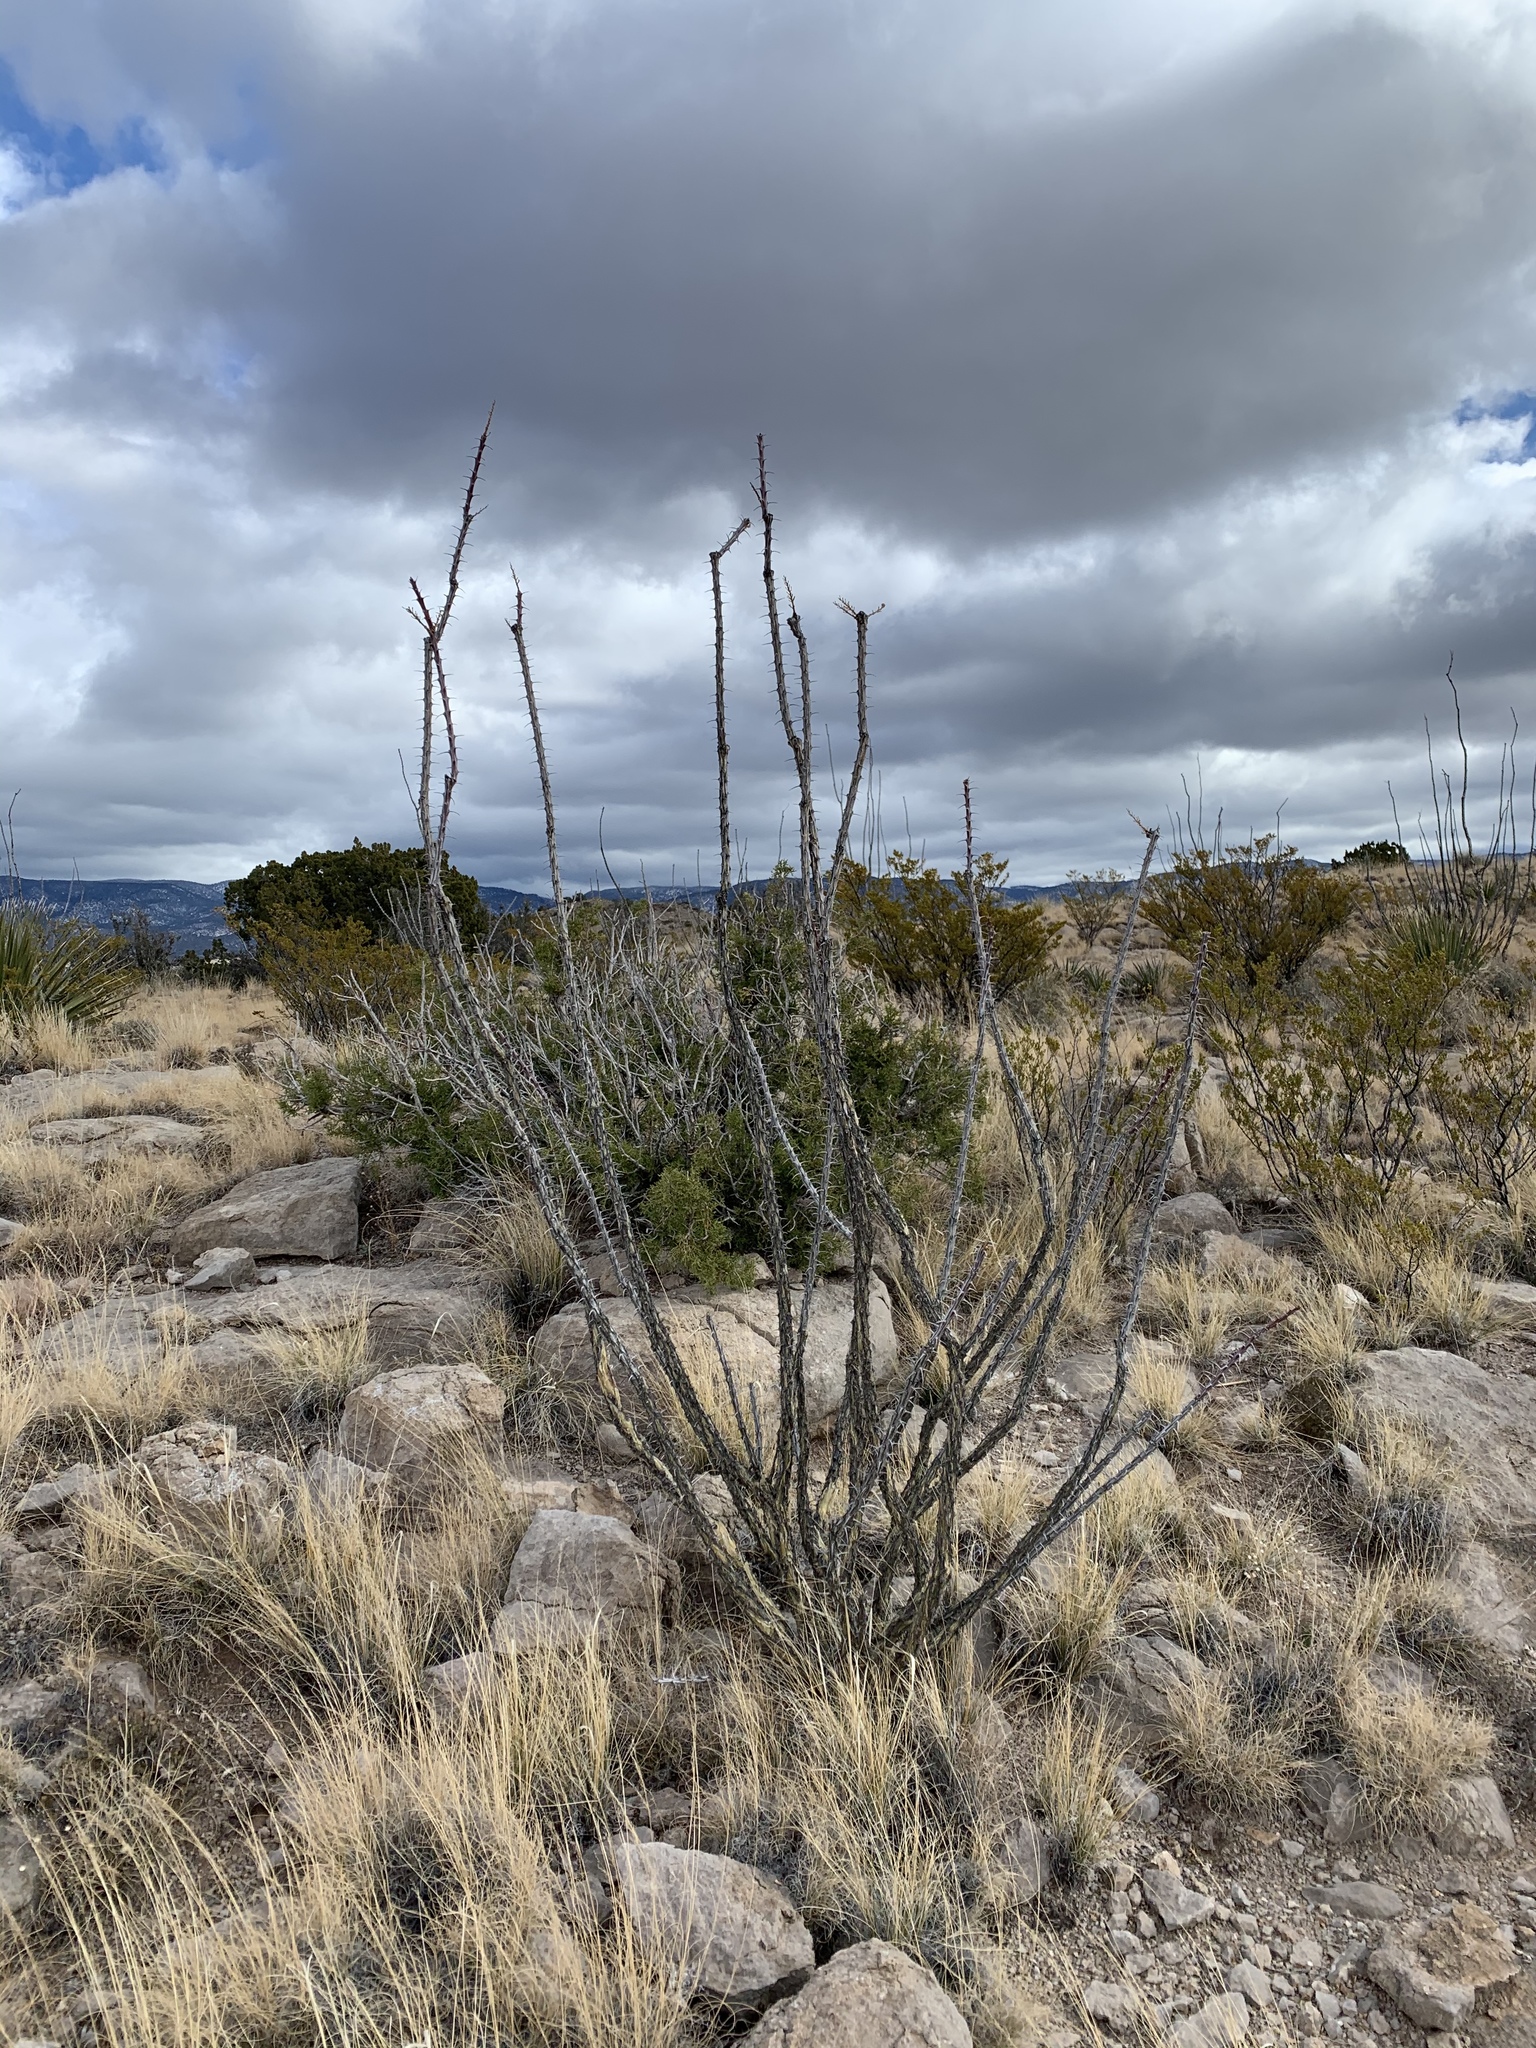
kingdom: Plantae
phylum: Tracheophyta
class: Magnoliopsida
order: Ericales
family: Fouquieriaceae
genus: Fouquieria
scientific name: Fouquieria splendens
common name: Vine-cactus
